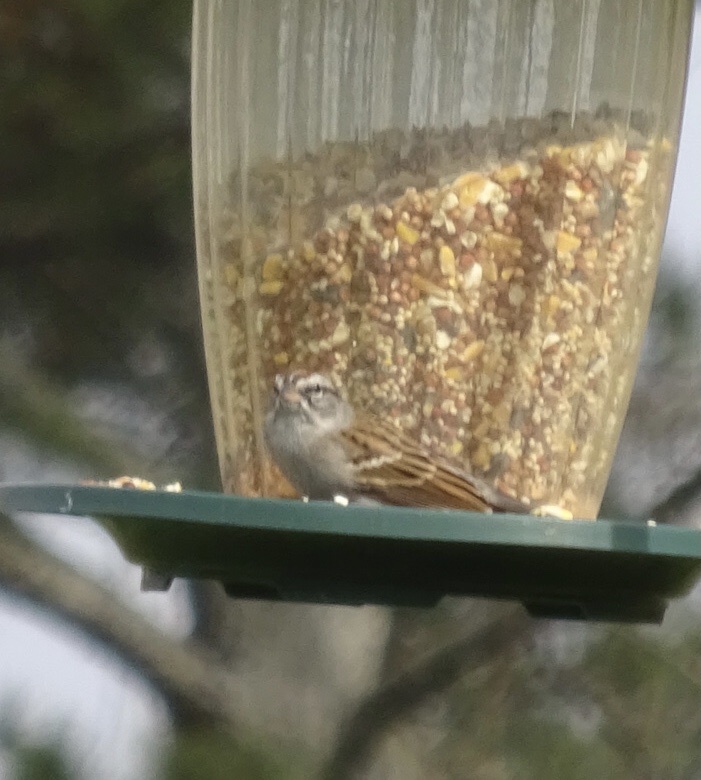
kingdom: Animalia
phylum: Chordata
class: Aves
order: Passeriformes
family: Passerellidae
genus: Spizella
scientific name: Spizella passerina
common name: Chipping sparrow
